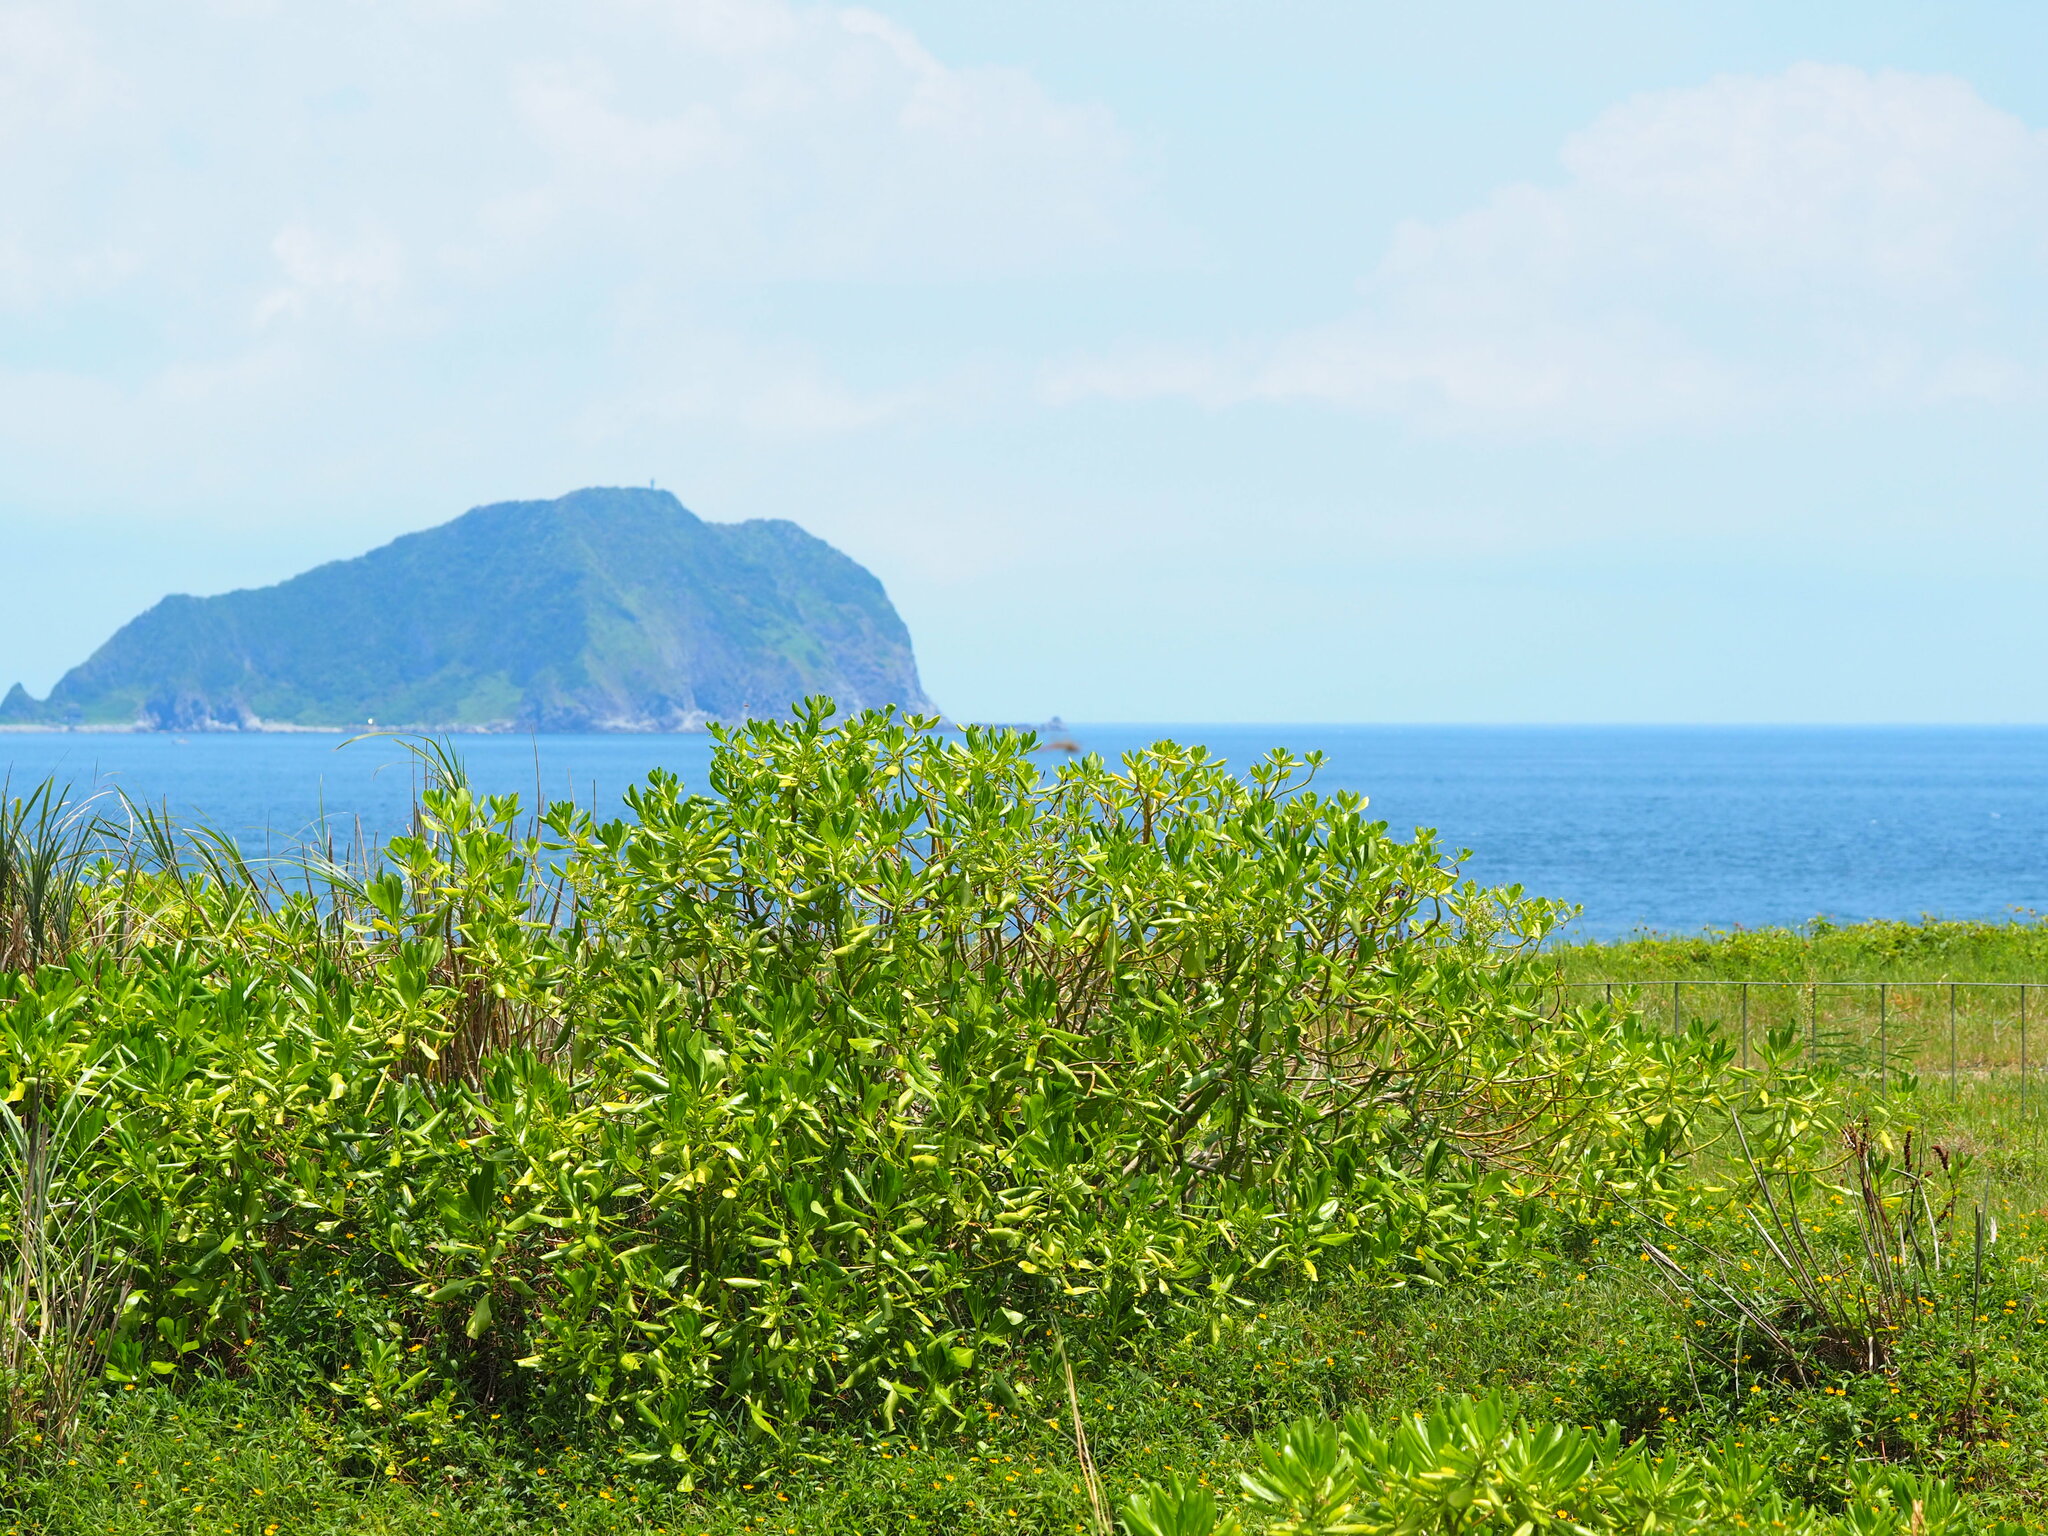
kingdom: Plantae
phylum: Tracheophyta
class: Magnoliopsida
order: Asterales
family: Goodeniaceae
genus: Scaevola
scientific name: Scaevola taccada
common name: Sea lettucetree
